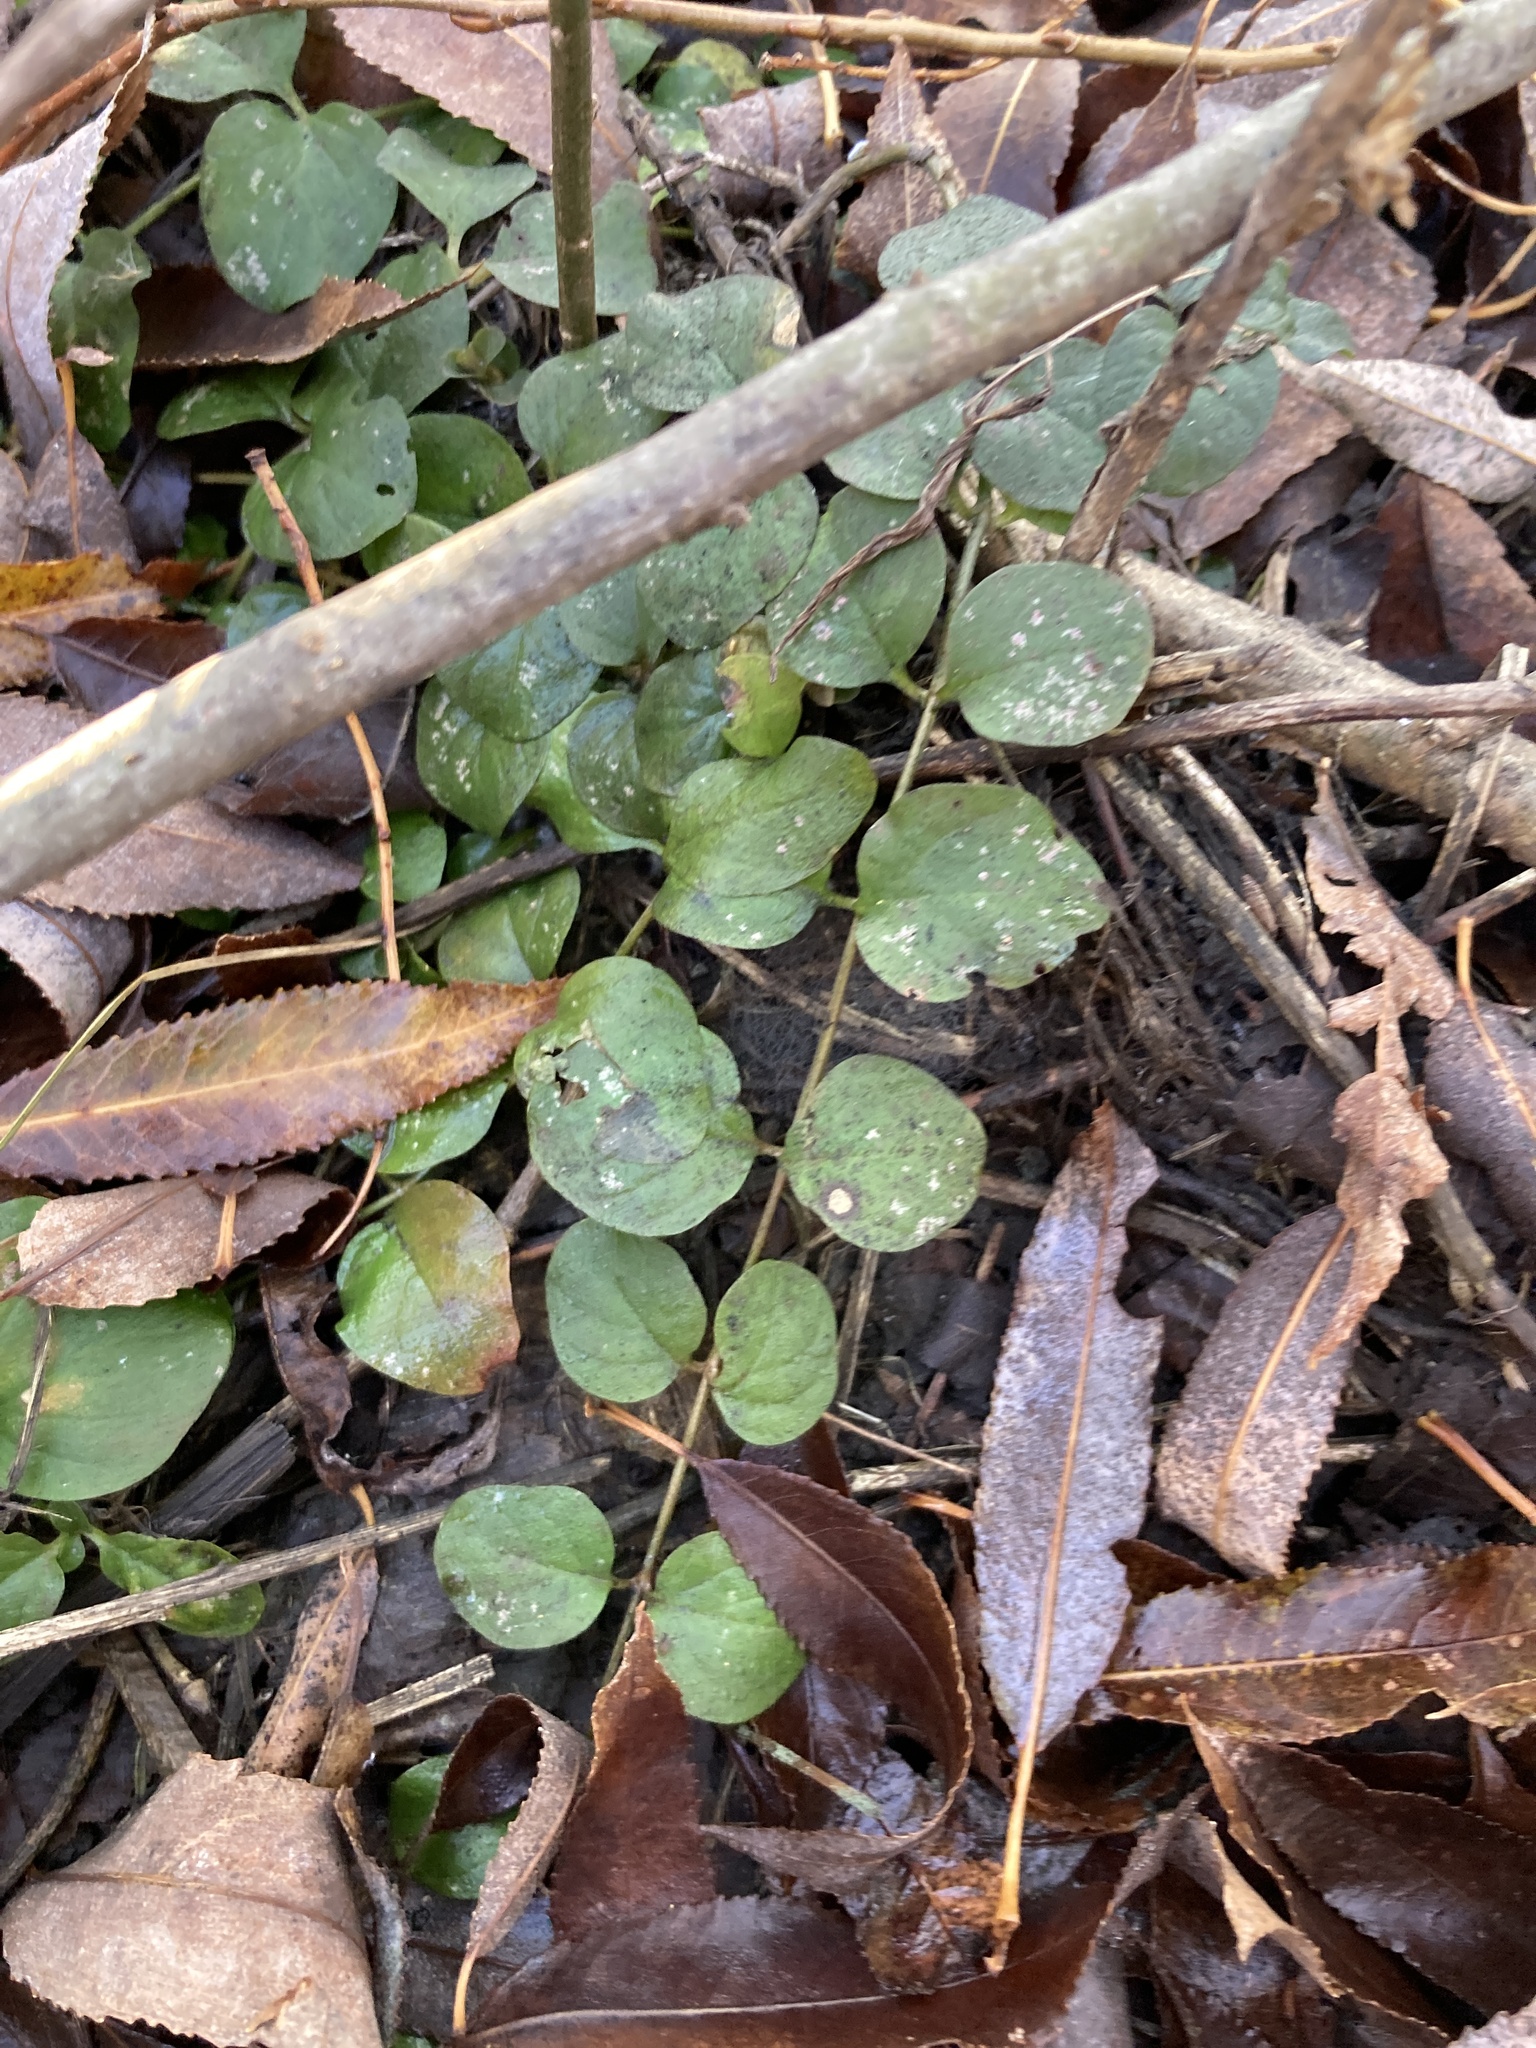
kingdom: Plantae
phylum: Tracheophyta
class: Magnoliopsida
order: Ericales
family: Primulaceae
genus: Lysimachia
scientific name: Lysimachia nummularia
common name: Moneywort
